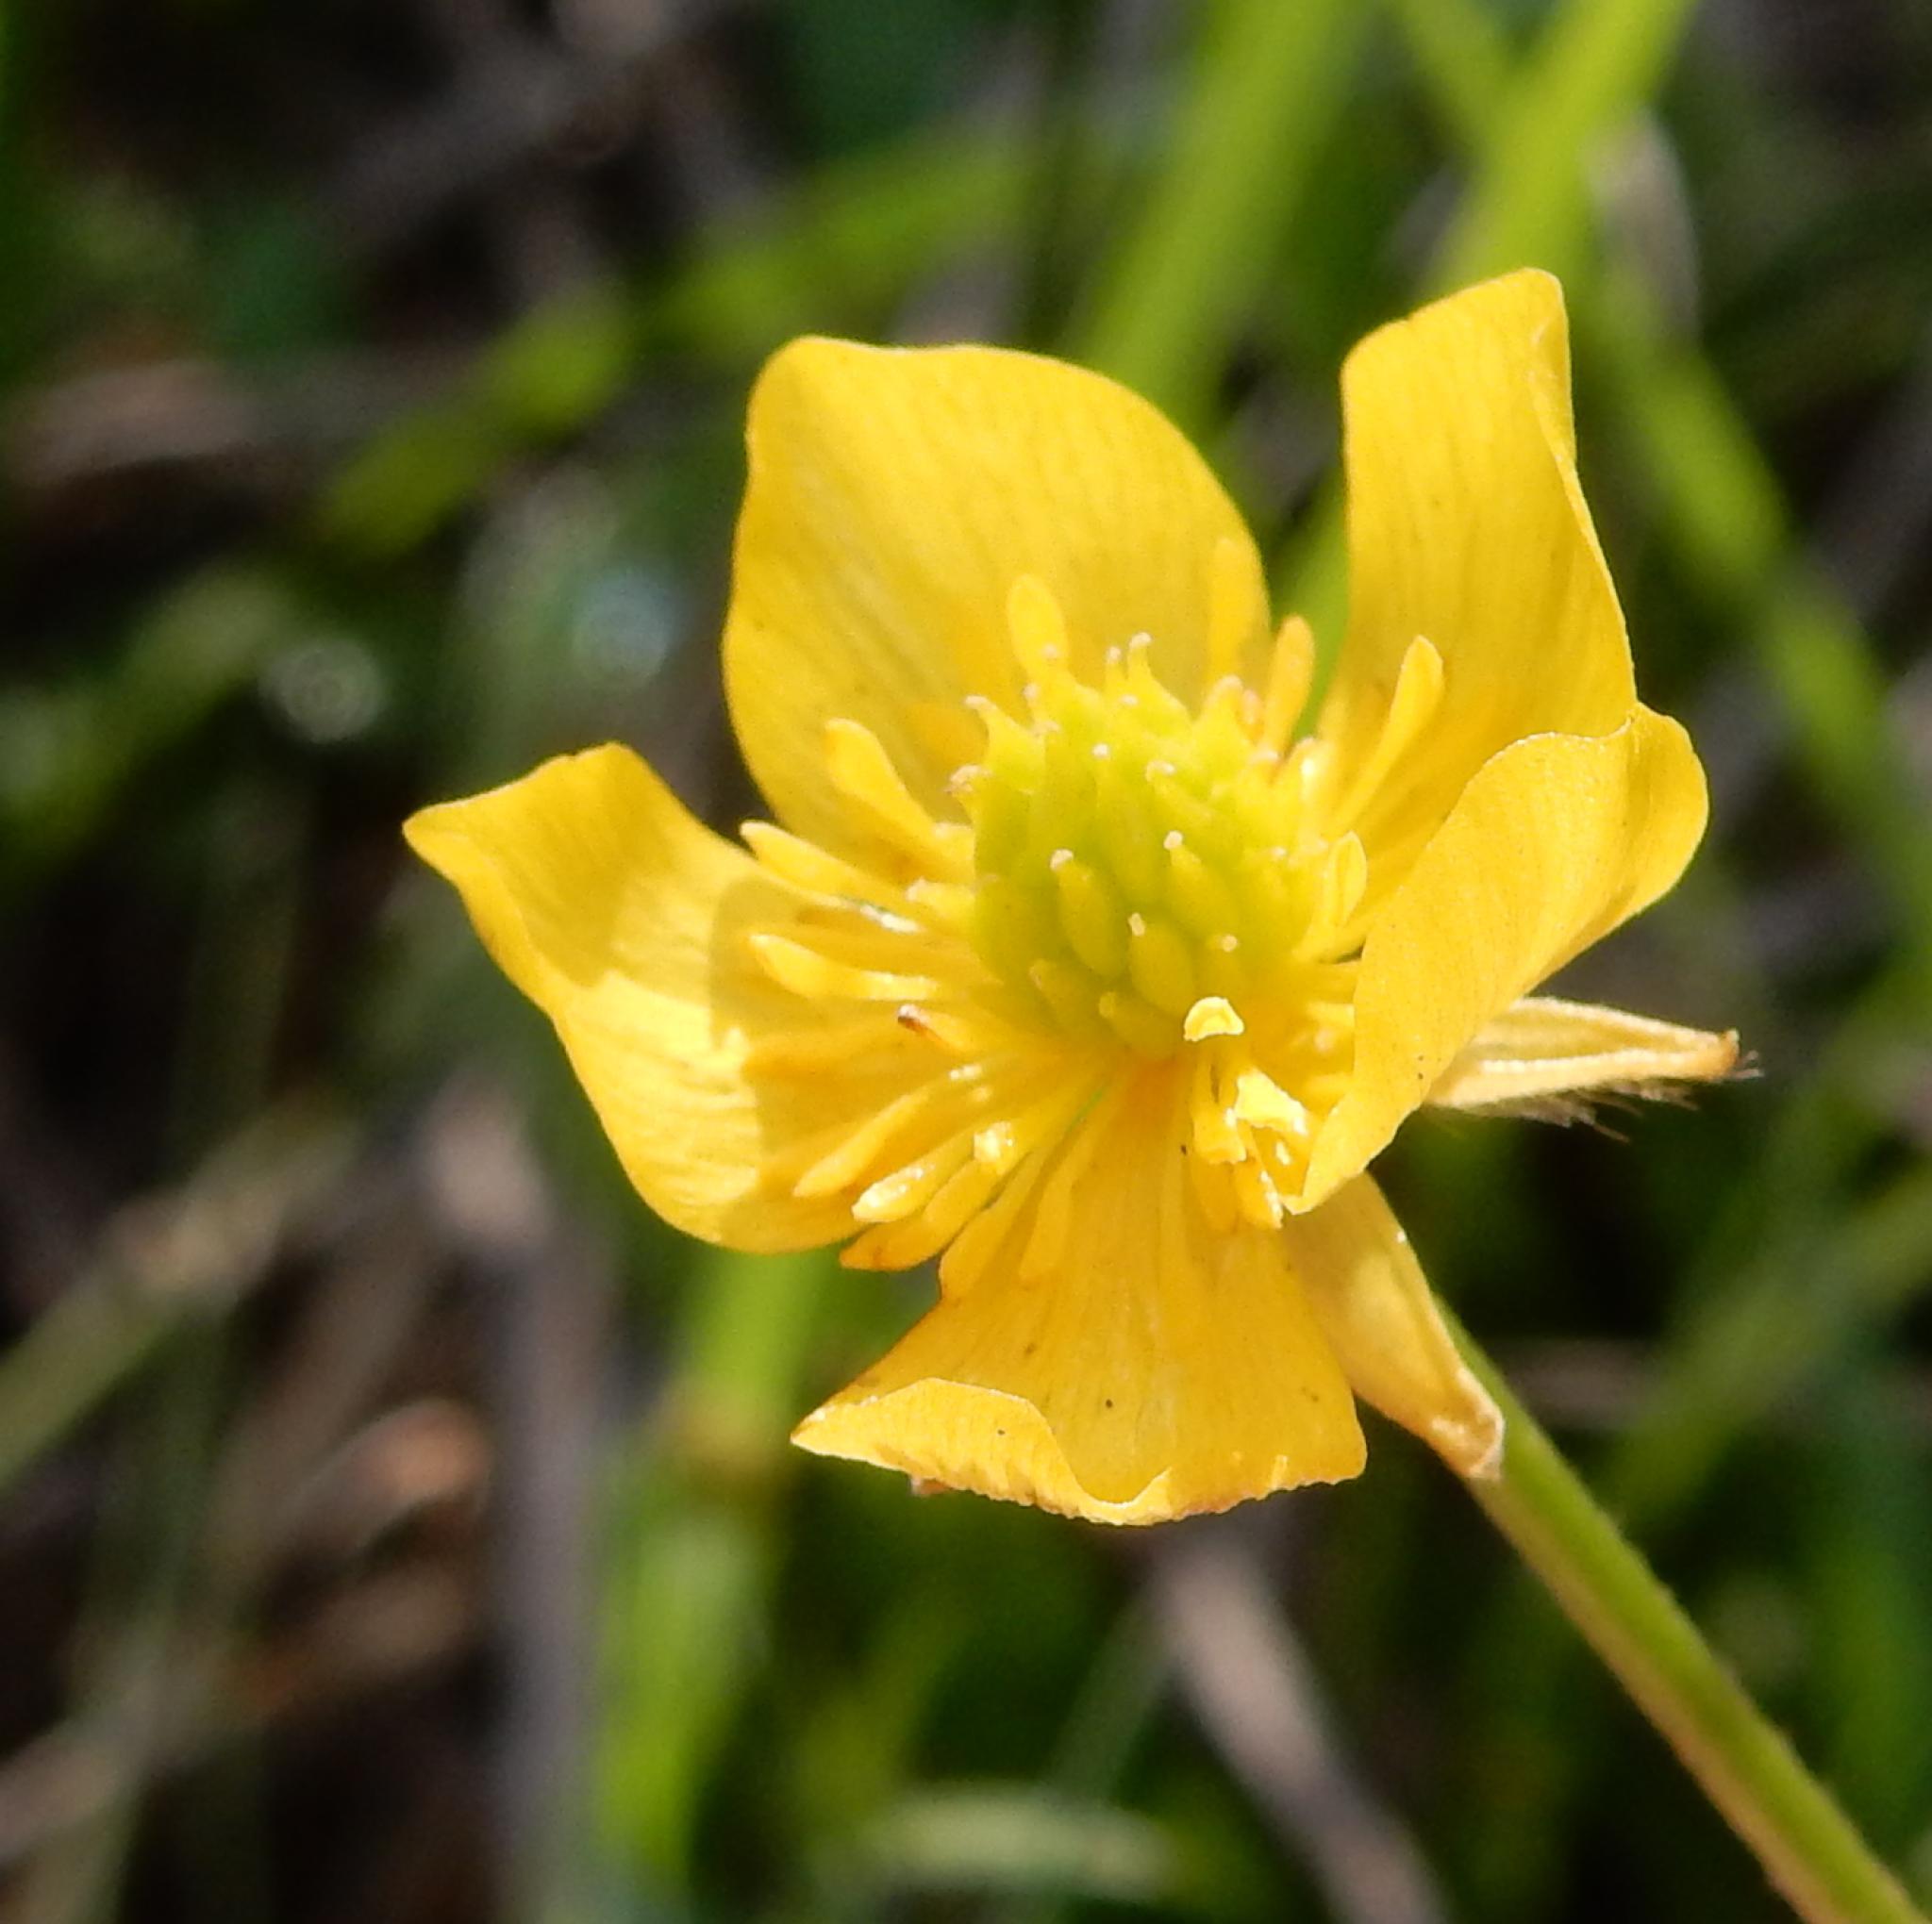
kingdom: Plantae
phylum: Tracheophyta
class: Magnoliopsida
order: Ranunculales
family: Ranunculaceae
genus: Ranunculus
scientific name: Ranunculus multifidus
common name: Wild buttercup
